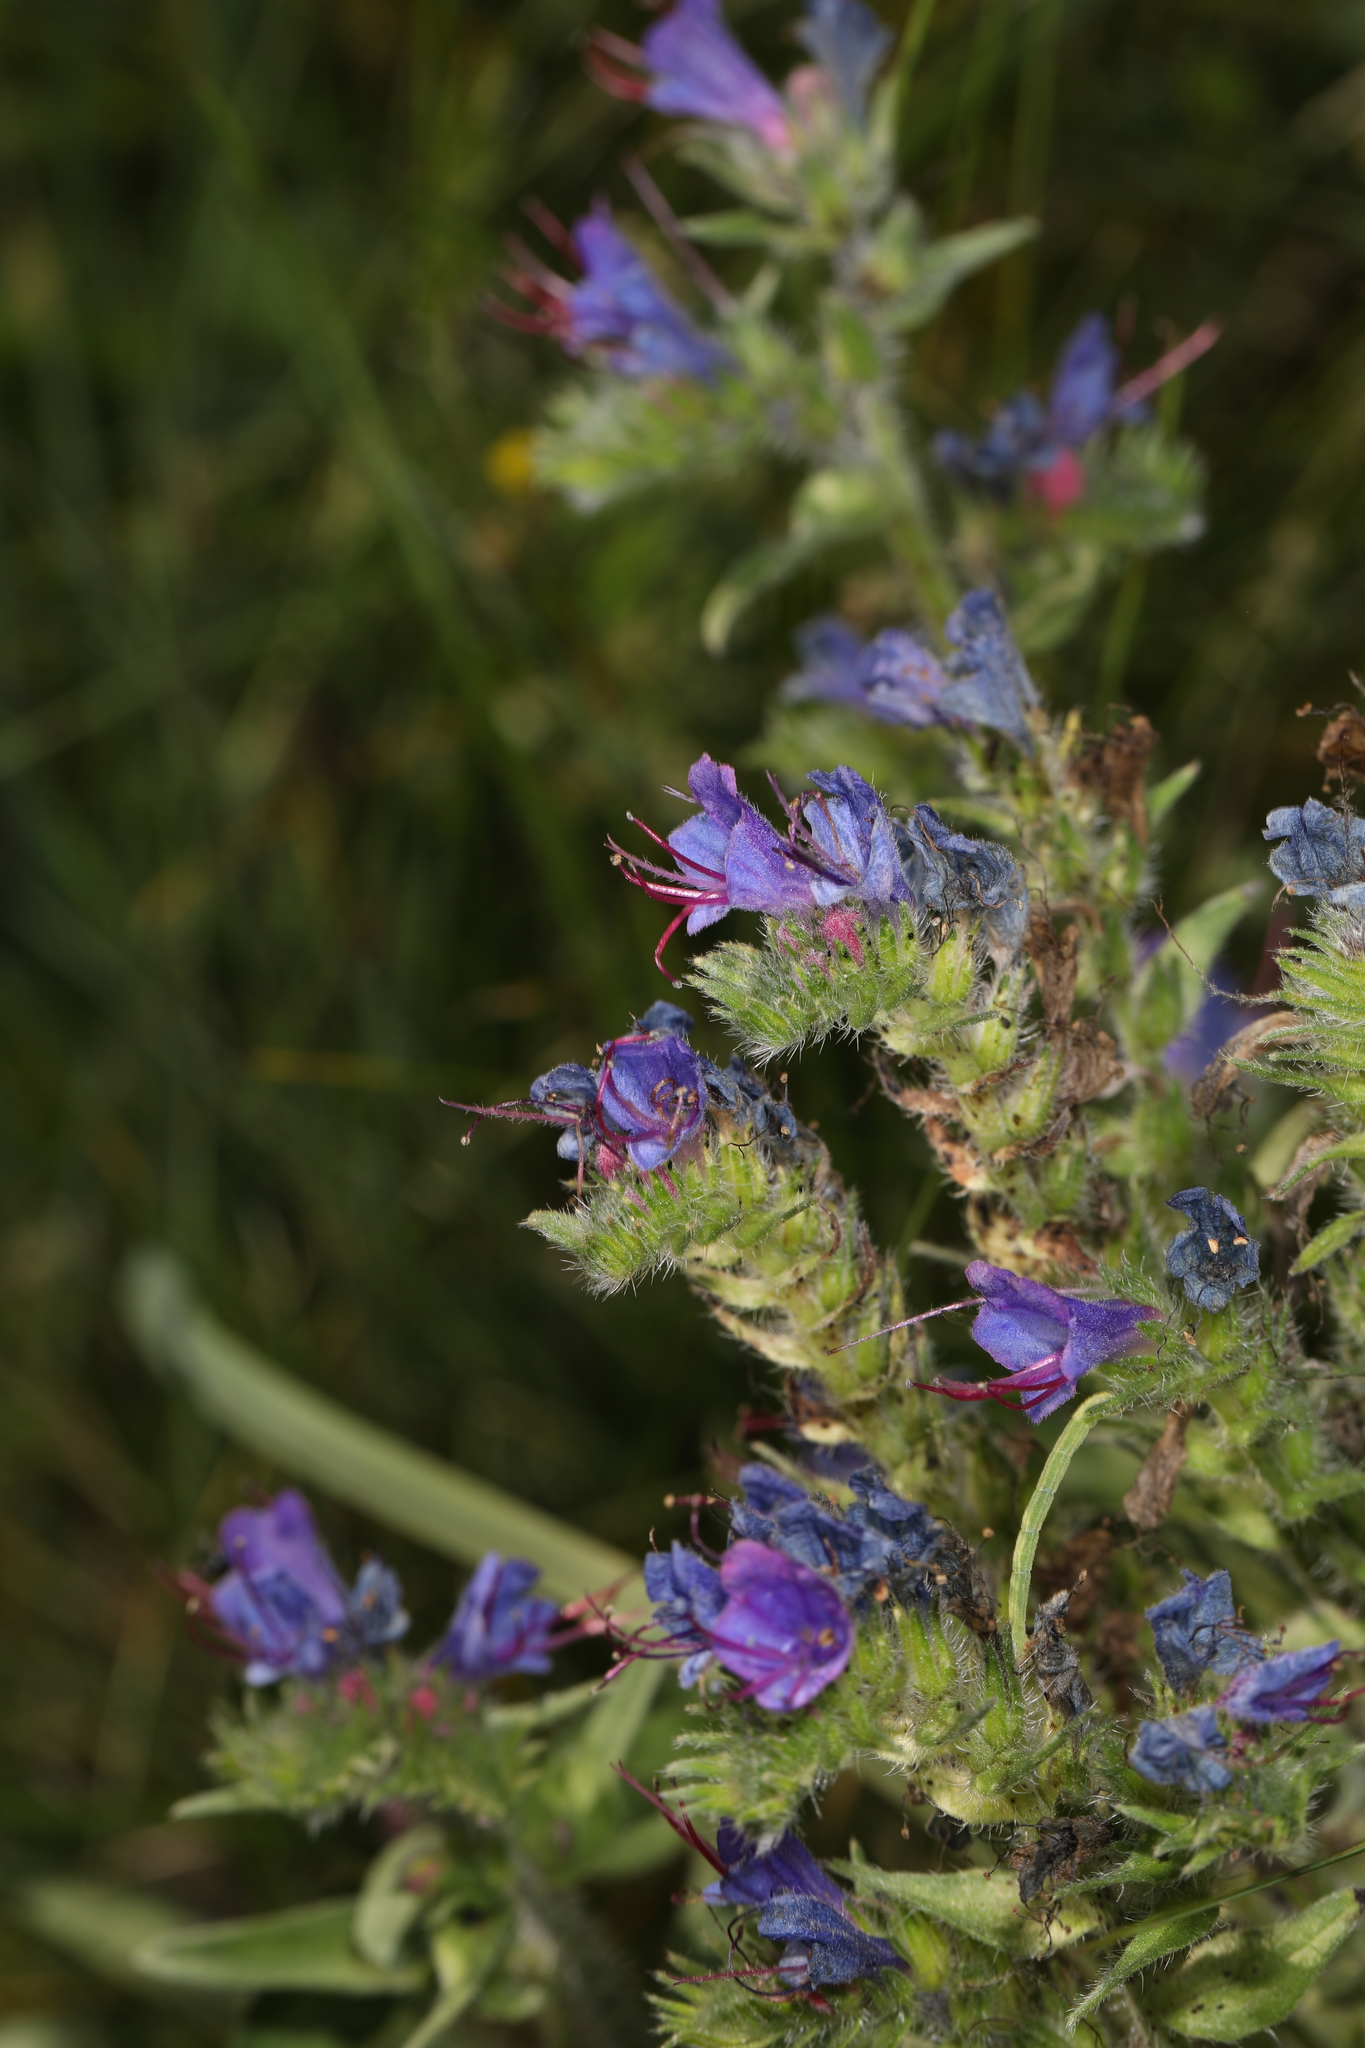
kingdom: Plantae
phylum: Tracheophyta
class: Magnoliopsida
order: Boraginales
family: Boraginaceae
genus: Echium
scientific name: Echium vulgare
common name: Common viper's bugloss
